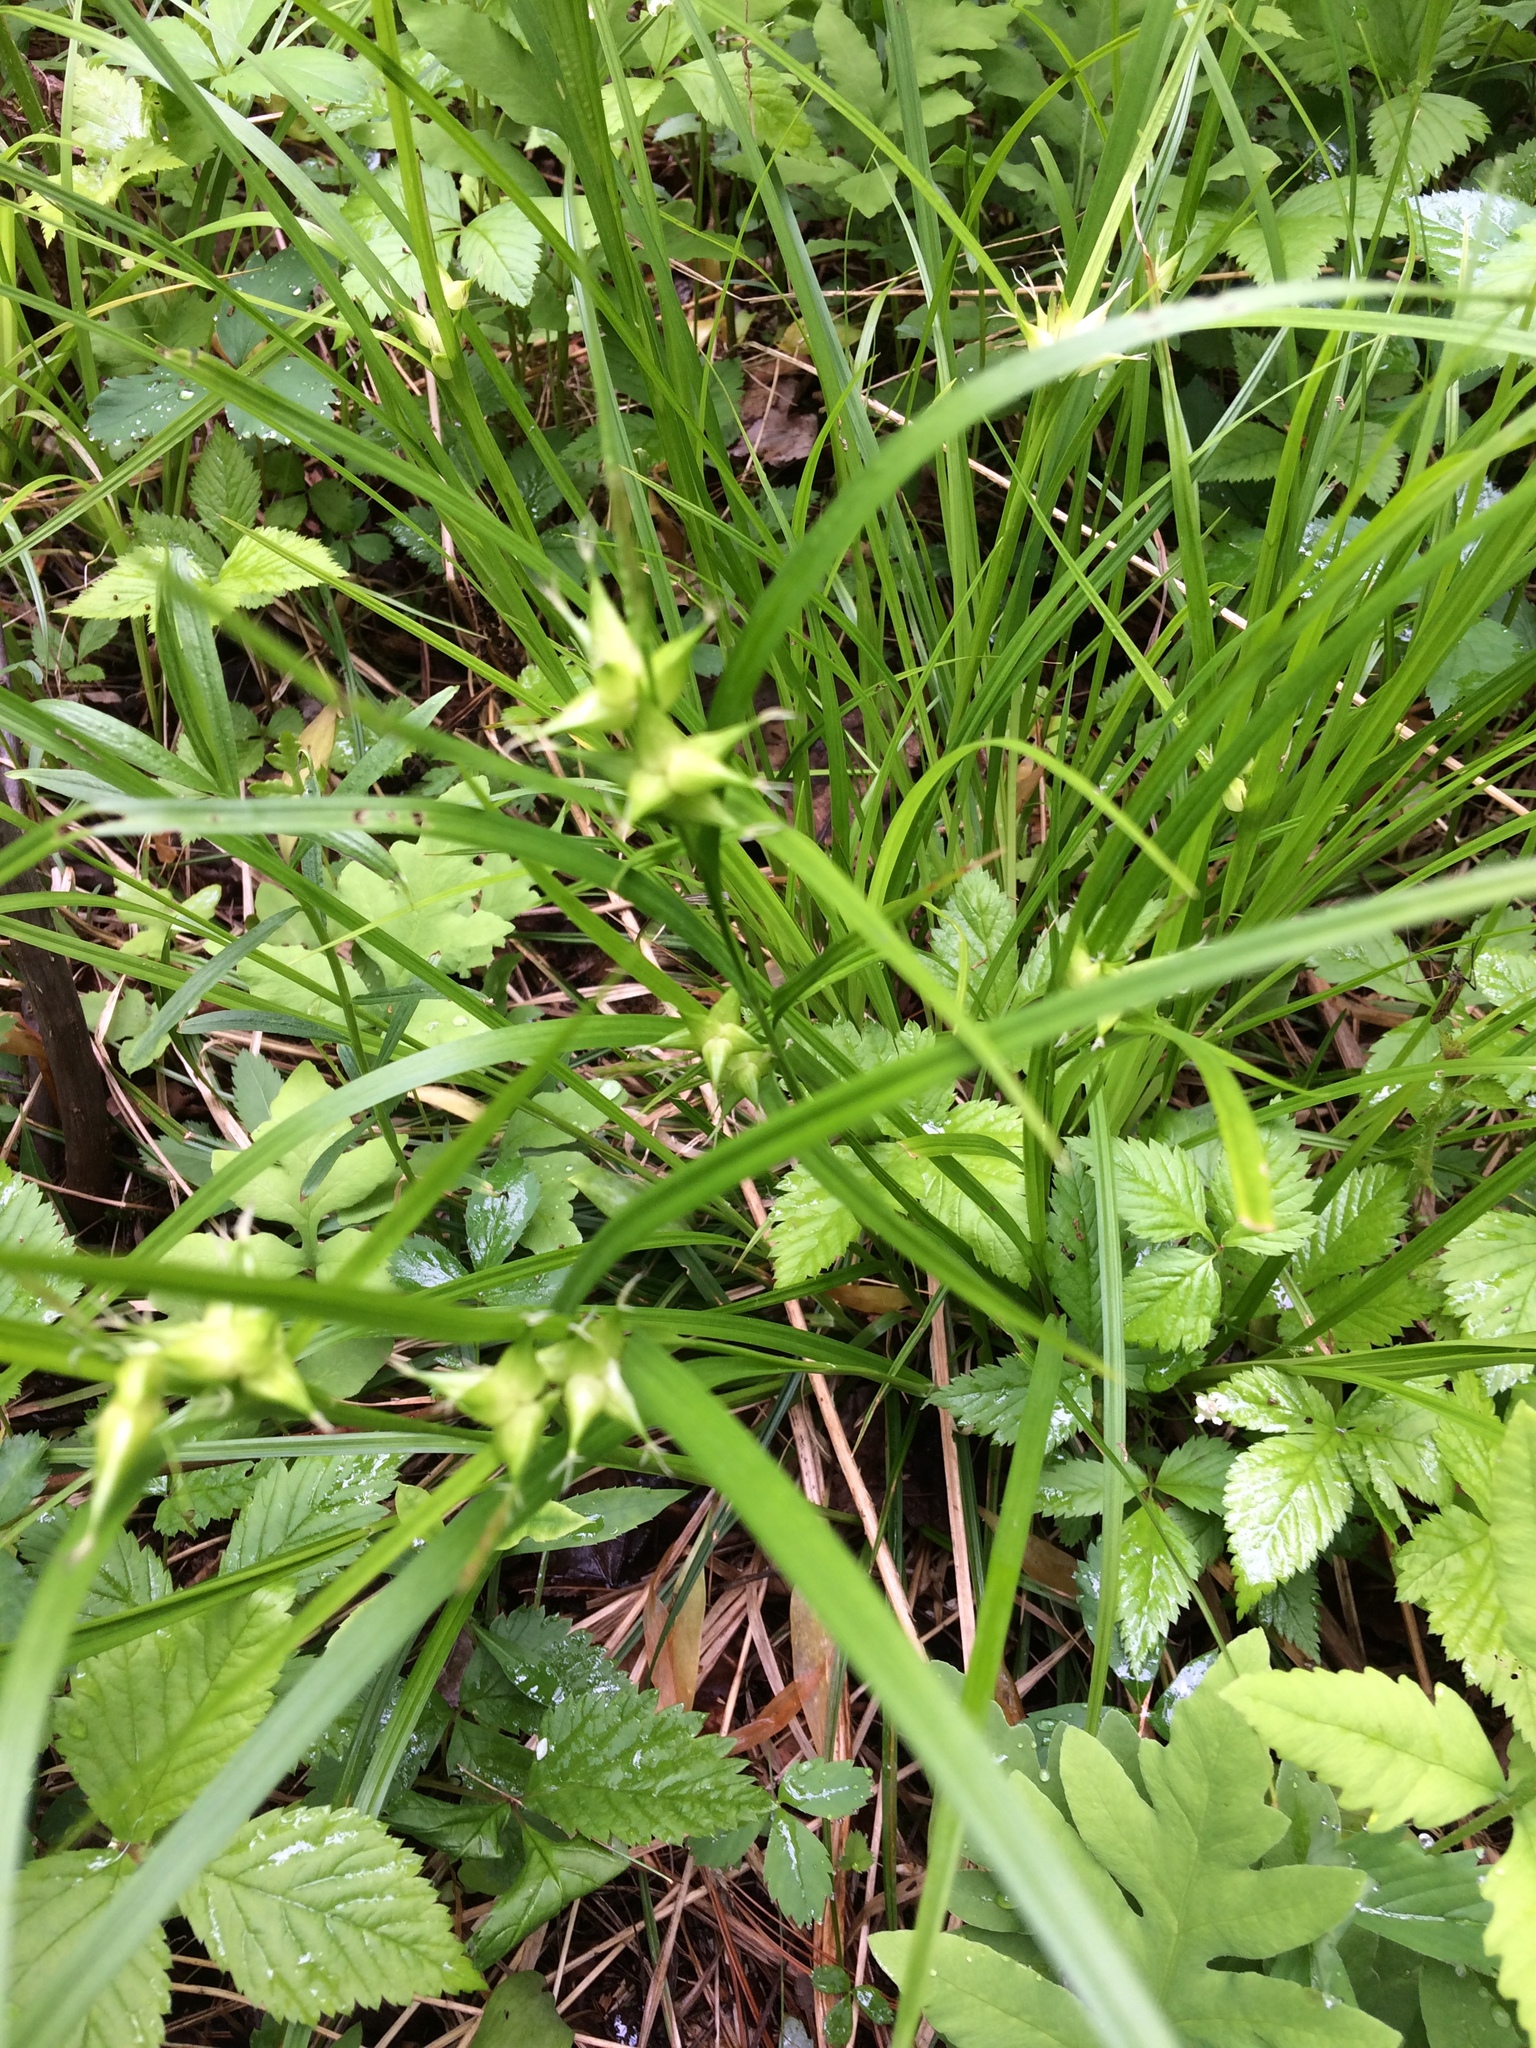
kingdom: Plantae
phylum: Tracheophyta
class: Liliopsida
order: Poales
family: Cyperaceae
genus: Carex
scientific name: Carex intumescens
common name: Greater bladder sedge
